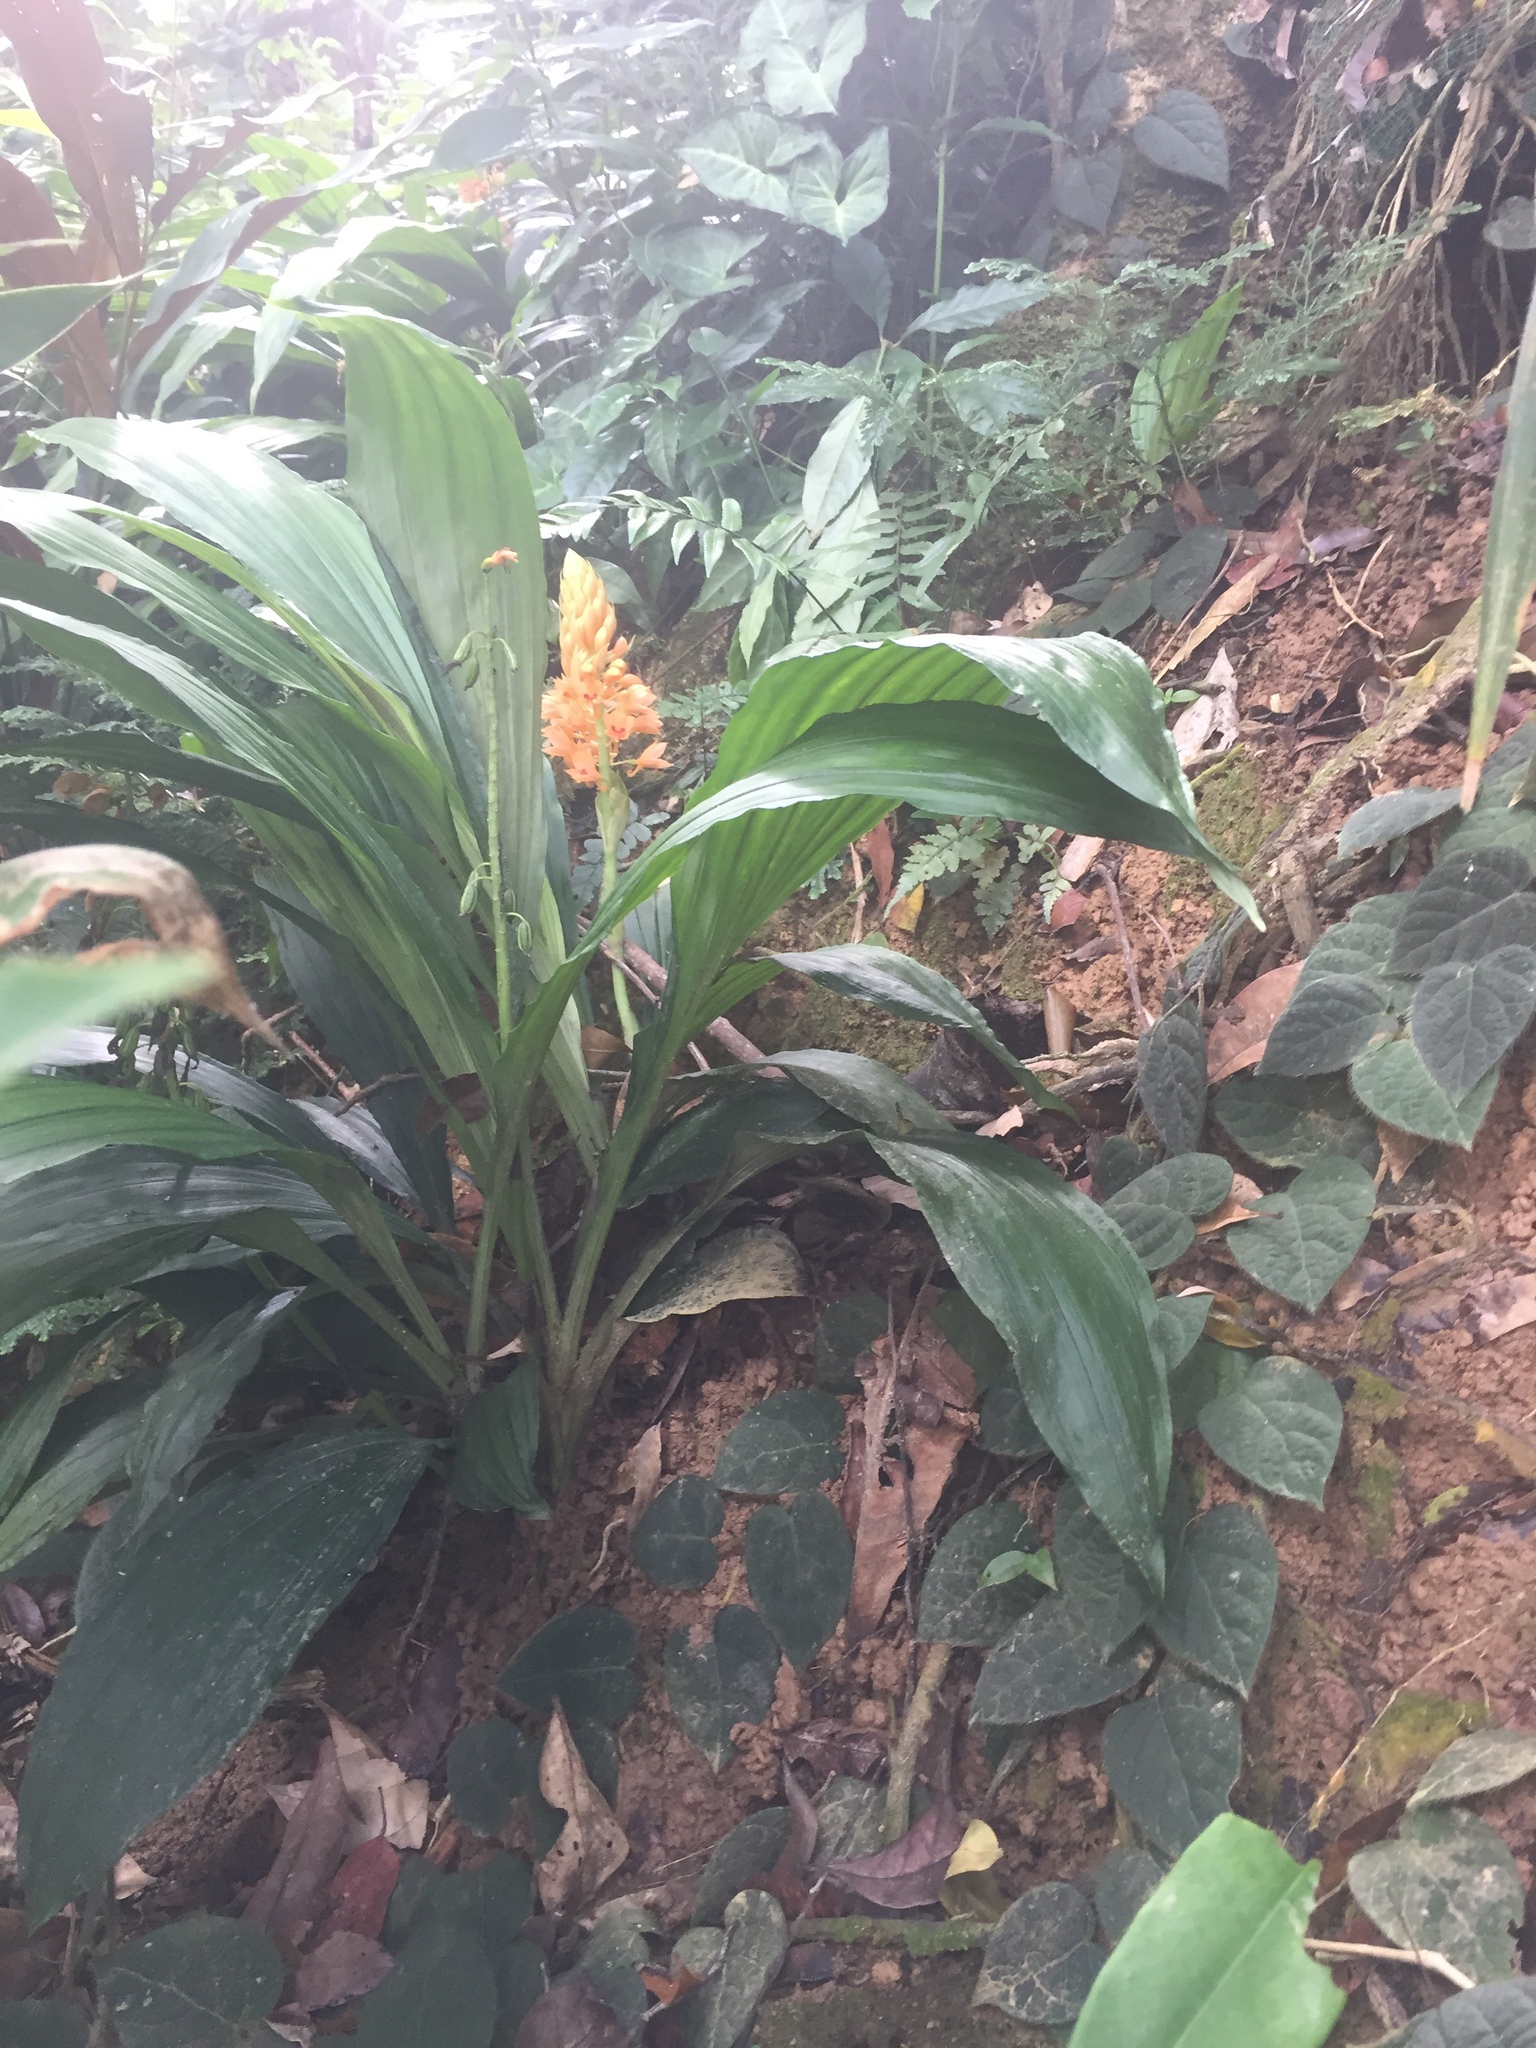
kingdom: Plantae
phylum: Tracheophyta
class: Liliopsida
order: Asparagales
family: Orchidaceae
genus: Calanthe
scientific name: Calanthe pulchra
